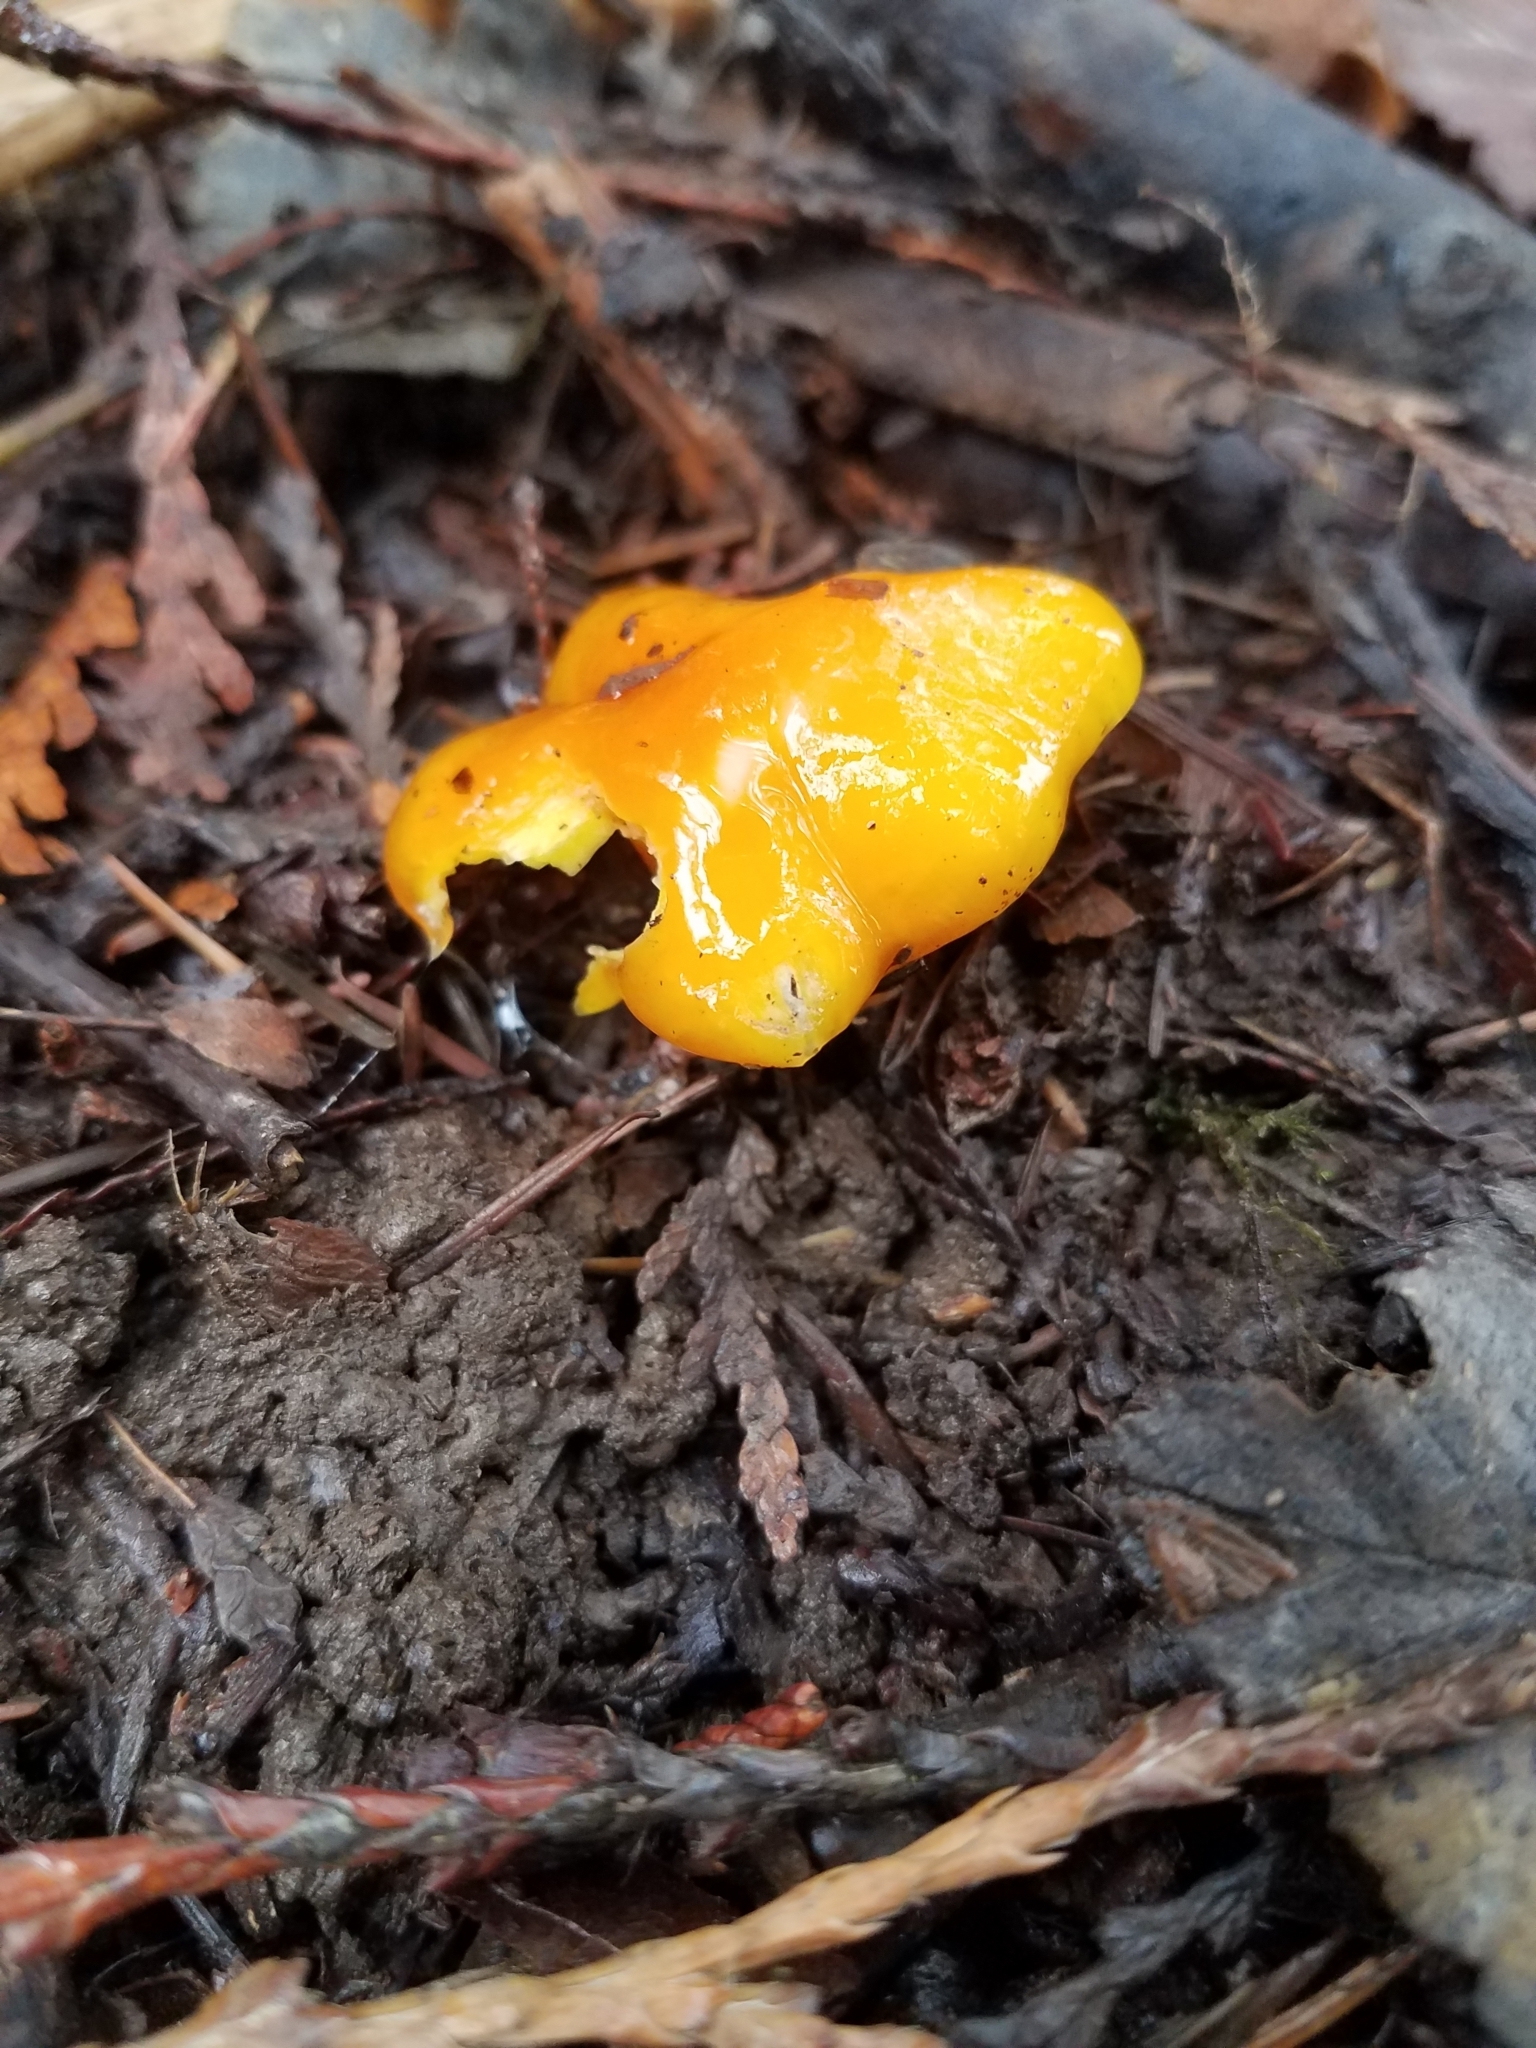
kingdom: Fungi
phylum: Basidiomycota
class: Agaricomycetes
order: Agaricales
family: Hygrophoraceae
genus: Hygrocybe
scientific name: Hygrocybe flavescens
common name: Golden waxy cap
